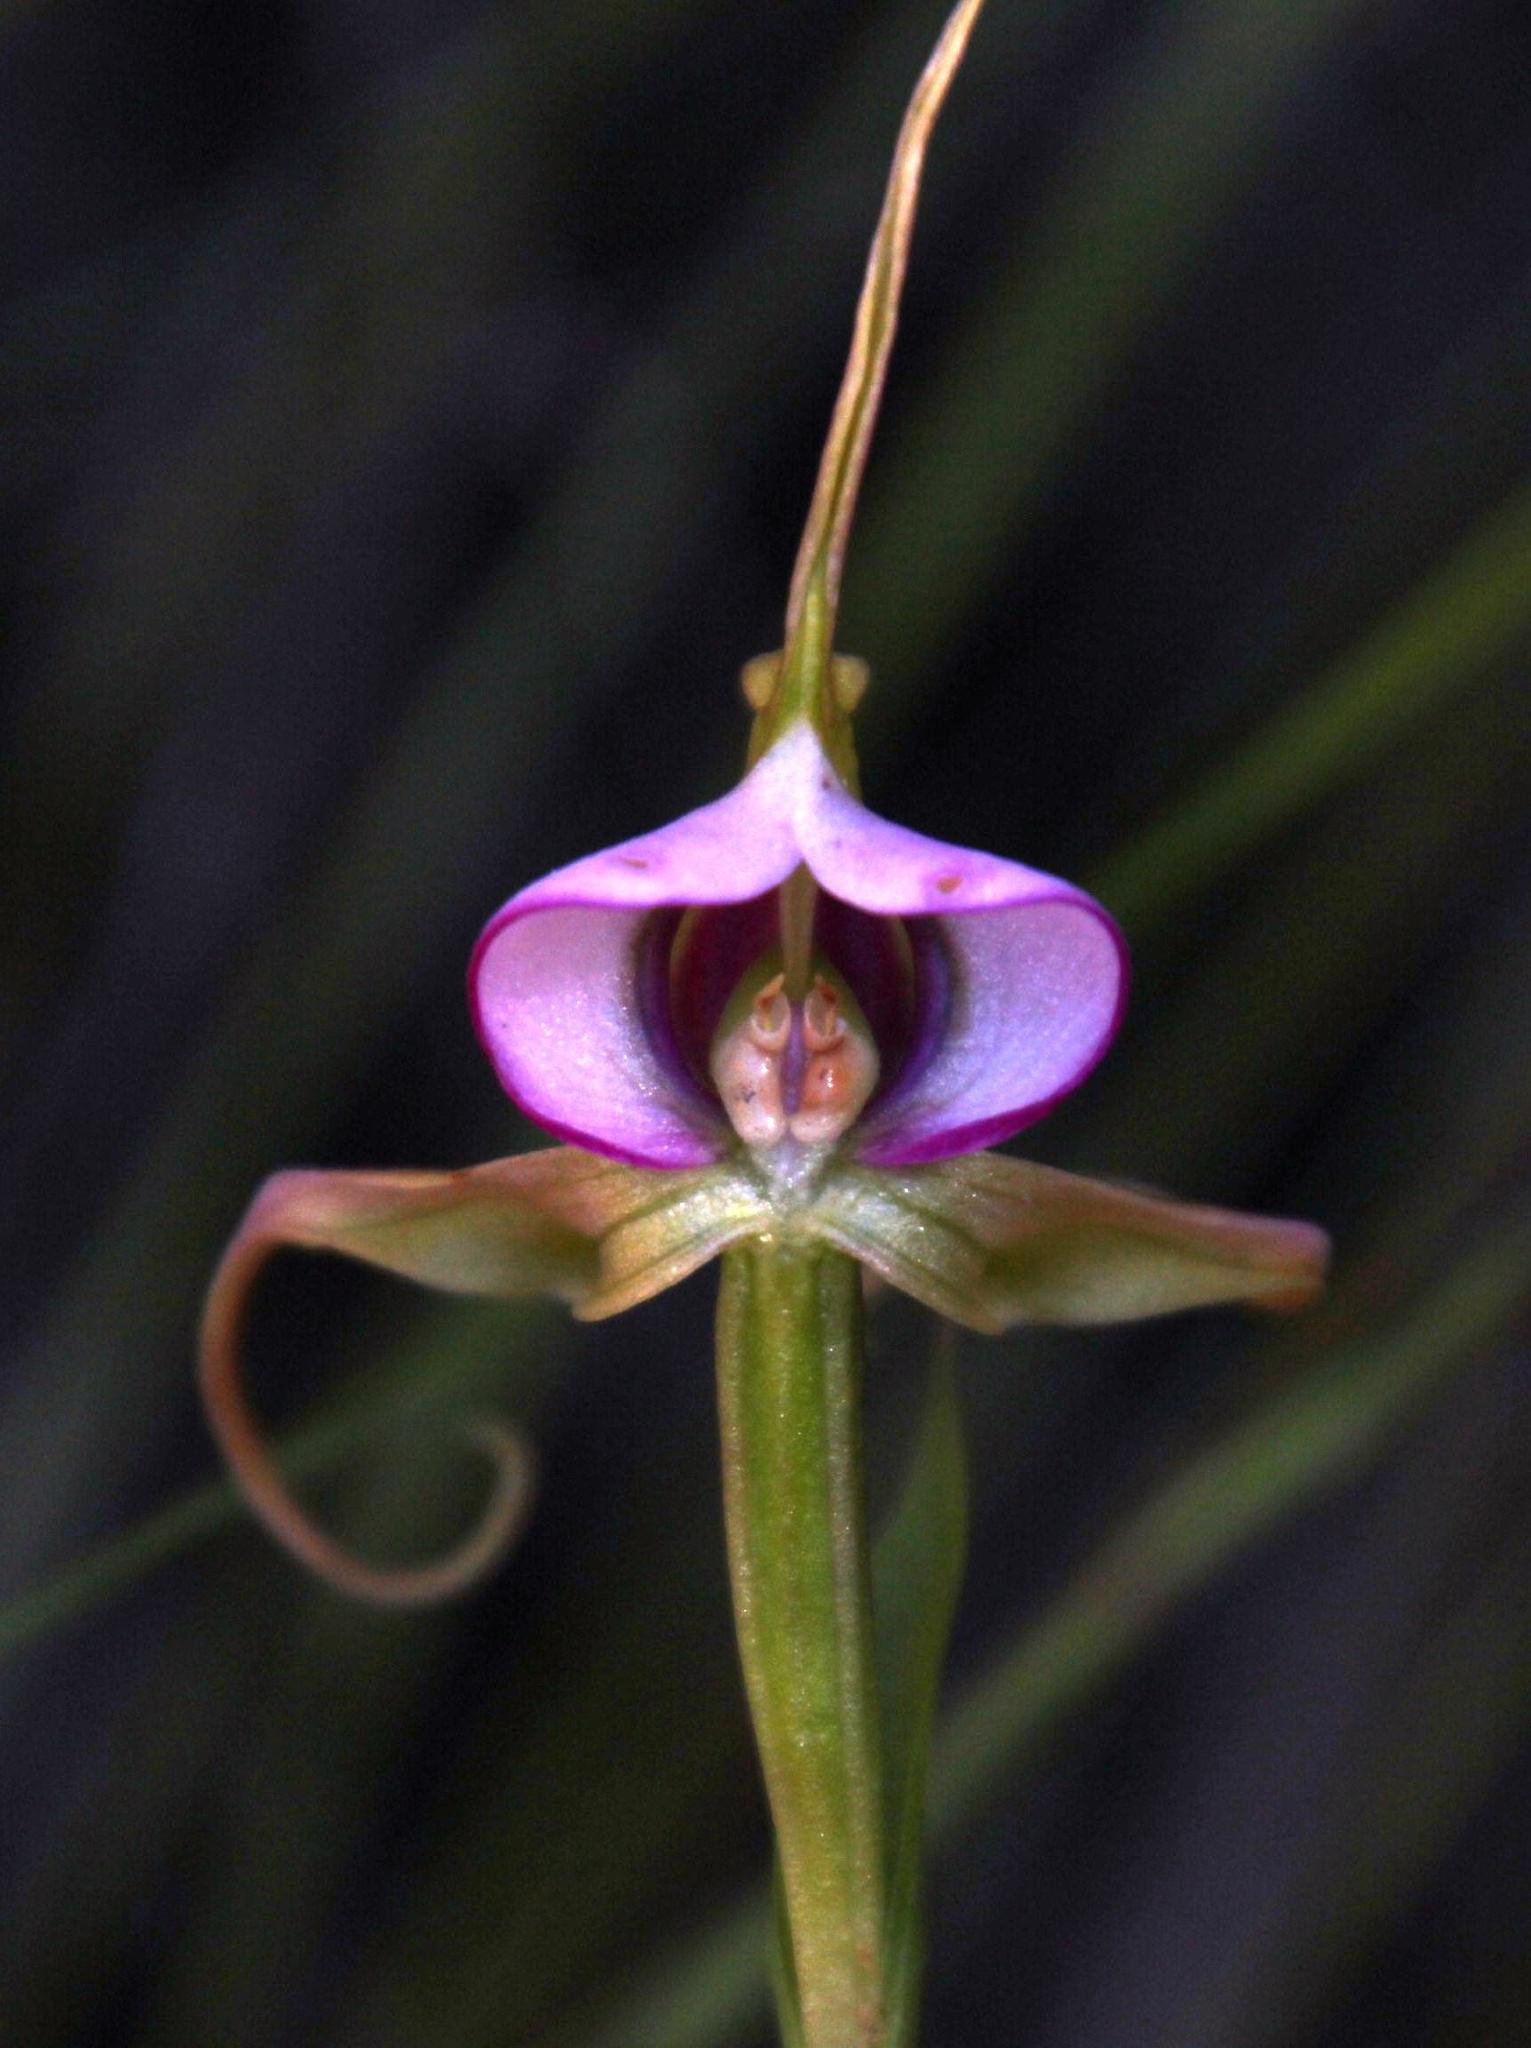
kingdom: Plantae
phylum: Tracheophyta
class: Liliopsida
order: Asparagales
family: Orchidaceae
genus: Disperis
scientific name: Disperis capensis
